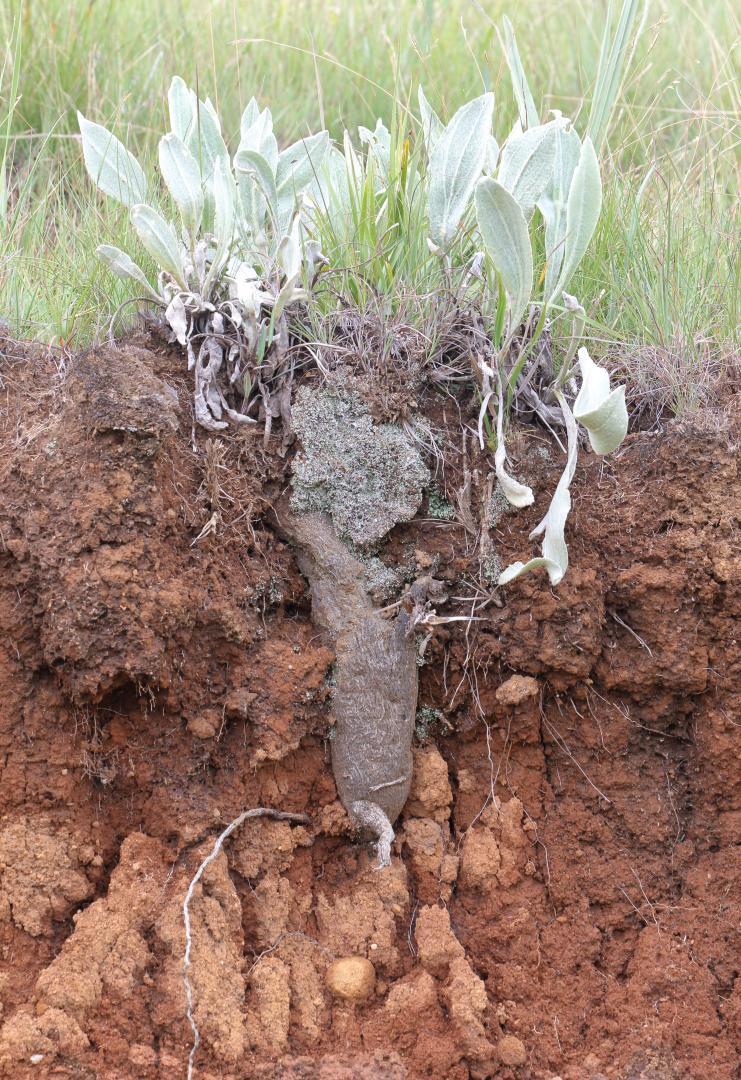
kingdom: Plantae
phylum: Tracheophyta
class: Magnoliopsida
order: Asterales
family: Asteraceae
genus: Helichrysum
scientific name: Helichrysum acutatum
